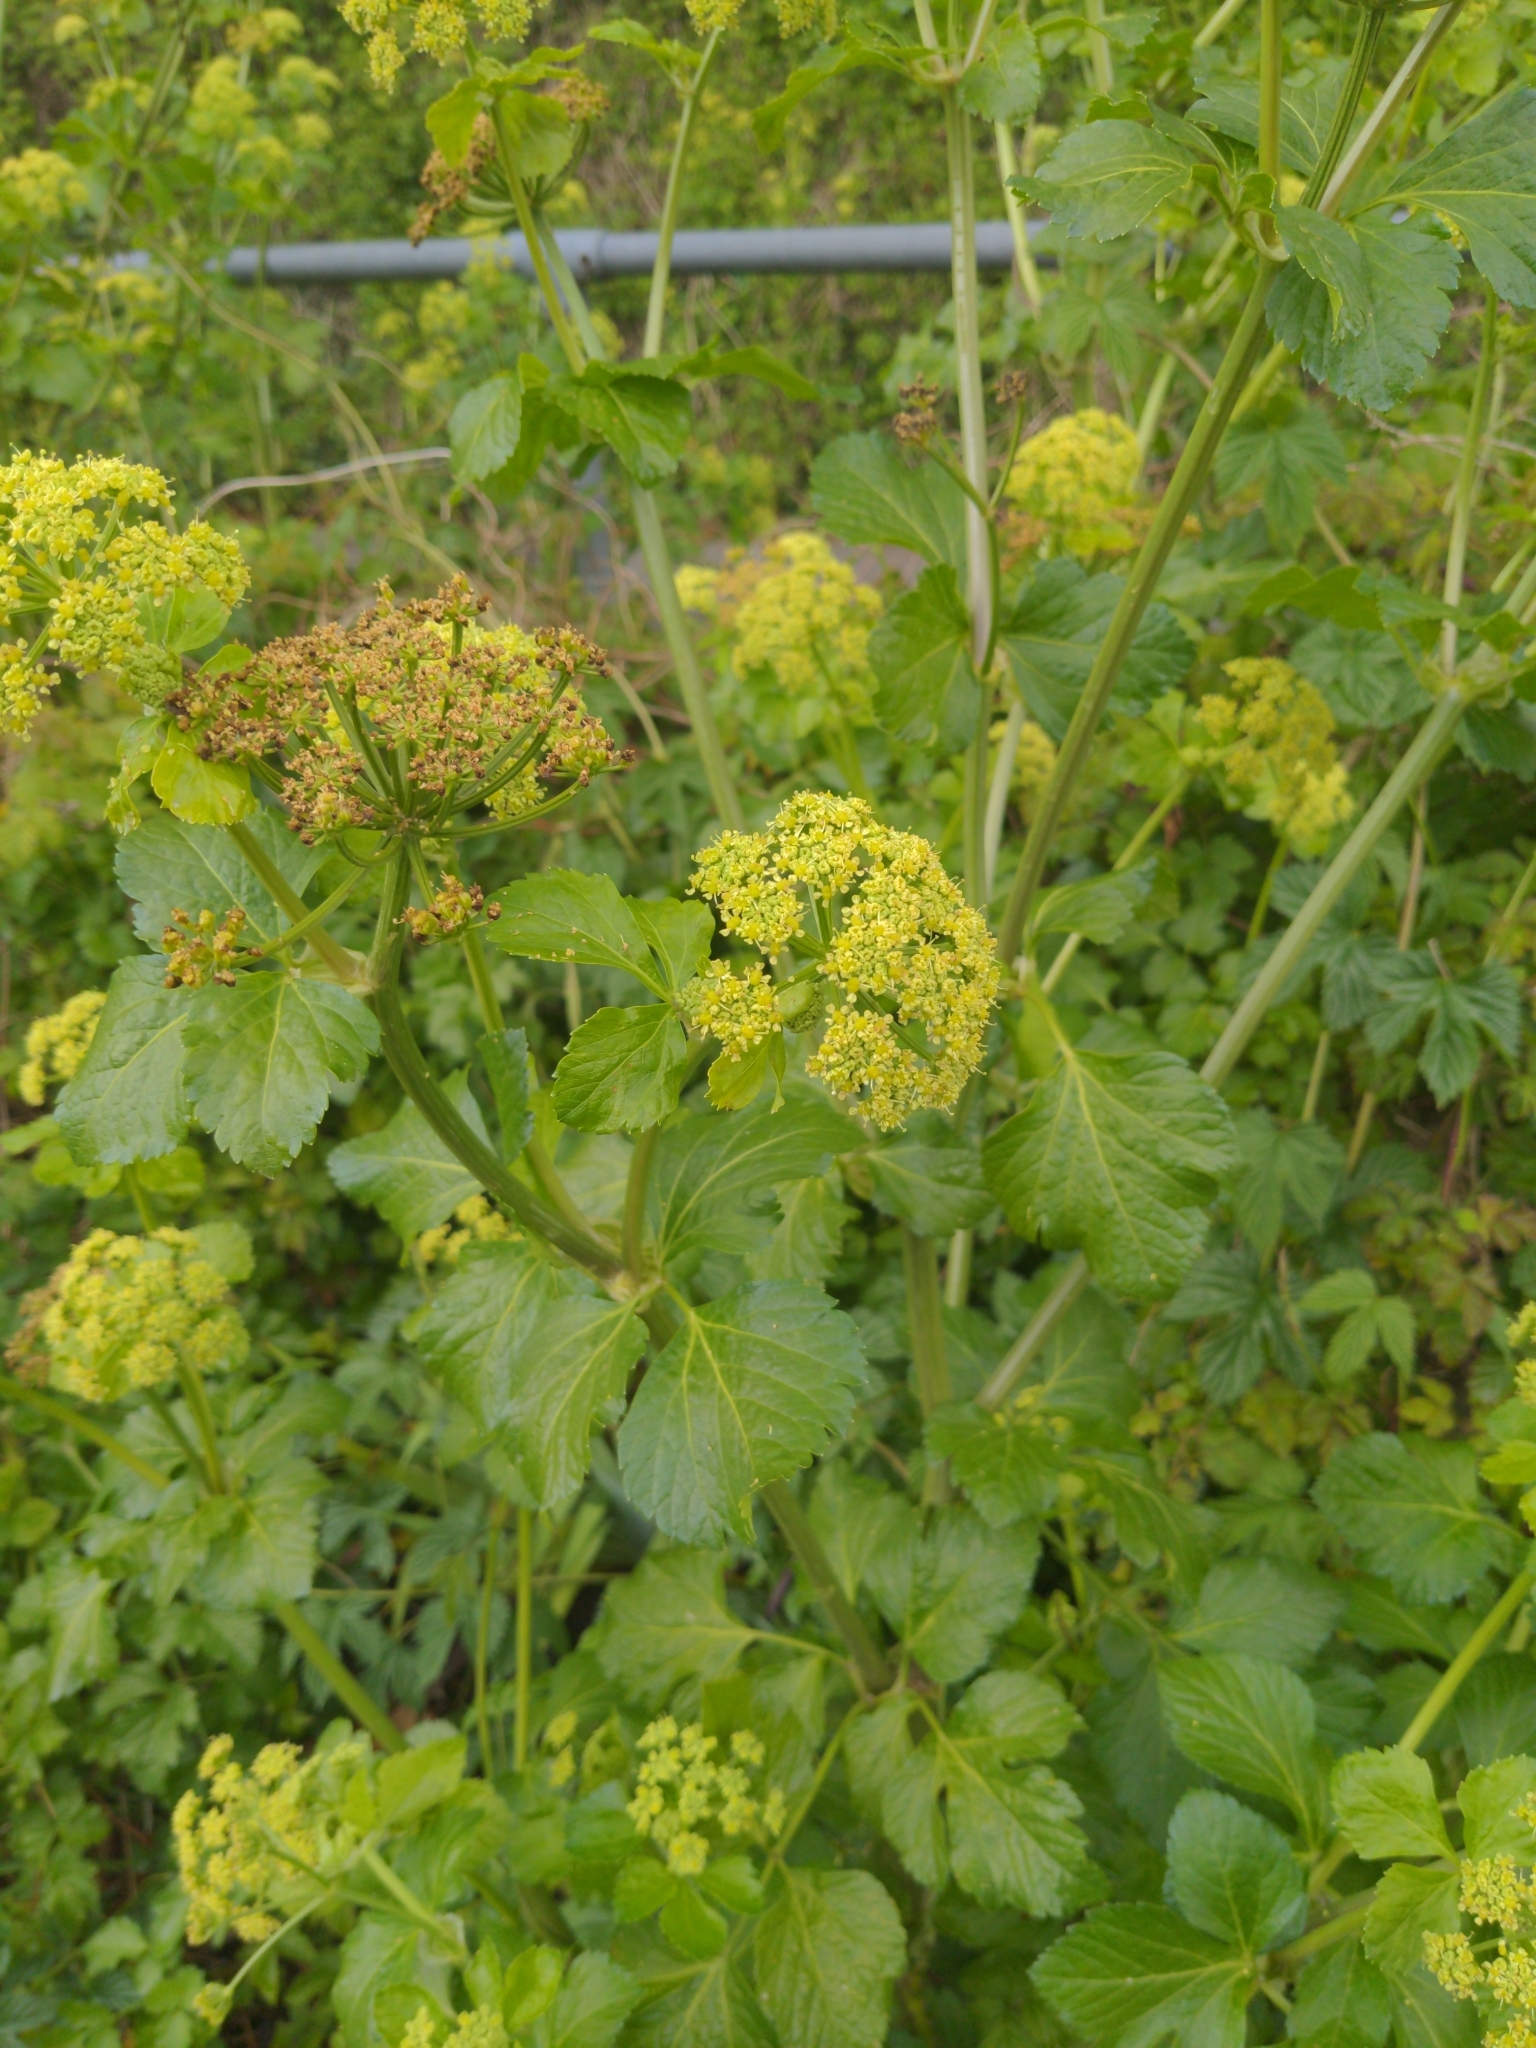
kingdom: Plantae
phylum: Tracheophyta
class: Magnoliopsida
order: Apiales
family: Apiaceae
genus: Smyrnium
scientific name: Smyrnium olusatrum
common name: Alexanders
